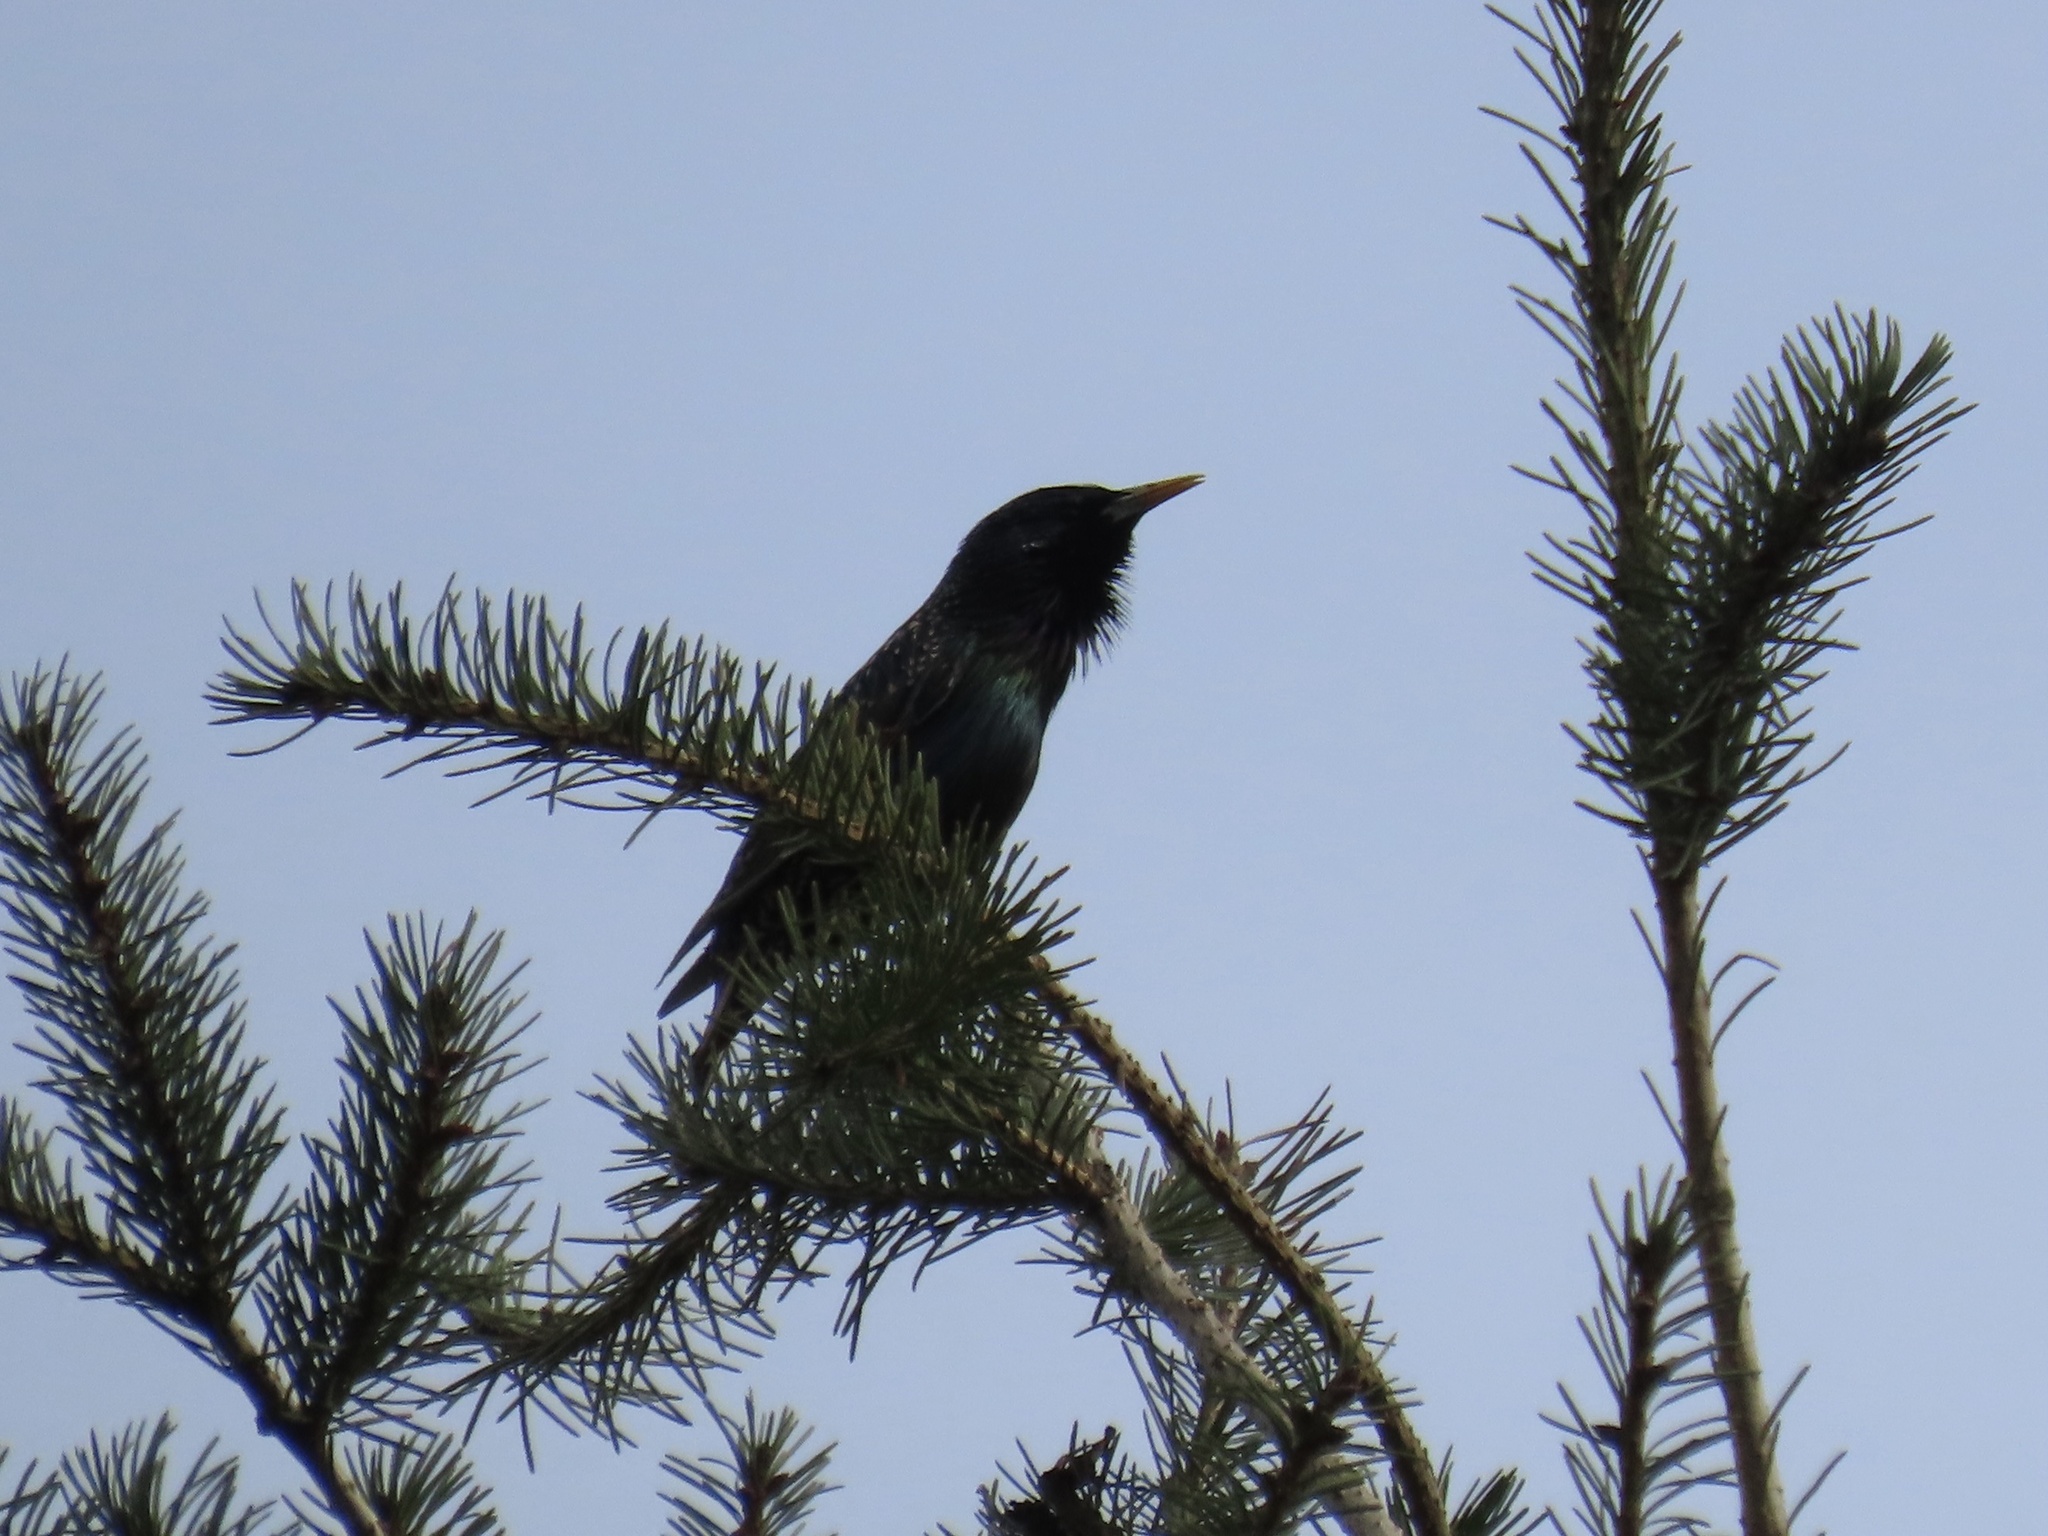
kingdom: Animalia
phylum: Chordata
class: Aves
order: Passeriformes
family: Sturnidae
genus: Sturnus
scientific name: Sturnus vulgaris
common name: Common starling
